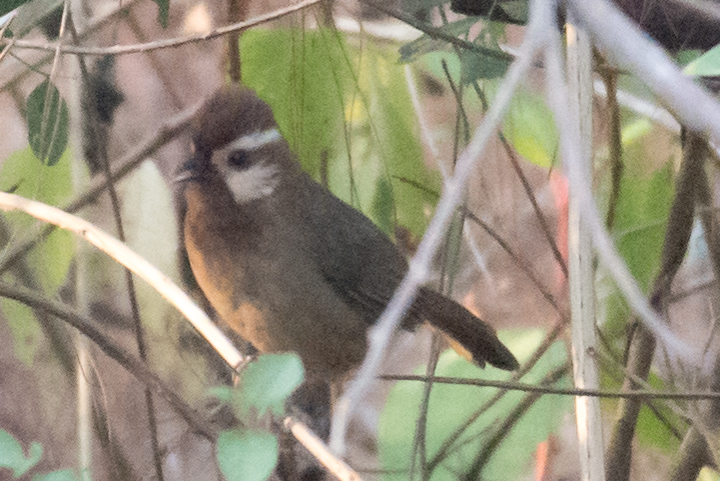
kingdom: Animalia
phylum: Chordata
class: Aves
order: Passeriformes
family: Leiothrichidae
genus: Pterorhinus
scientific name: Pterorhinus sannio
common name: White-browed laughingthrush
